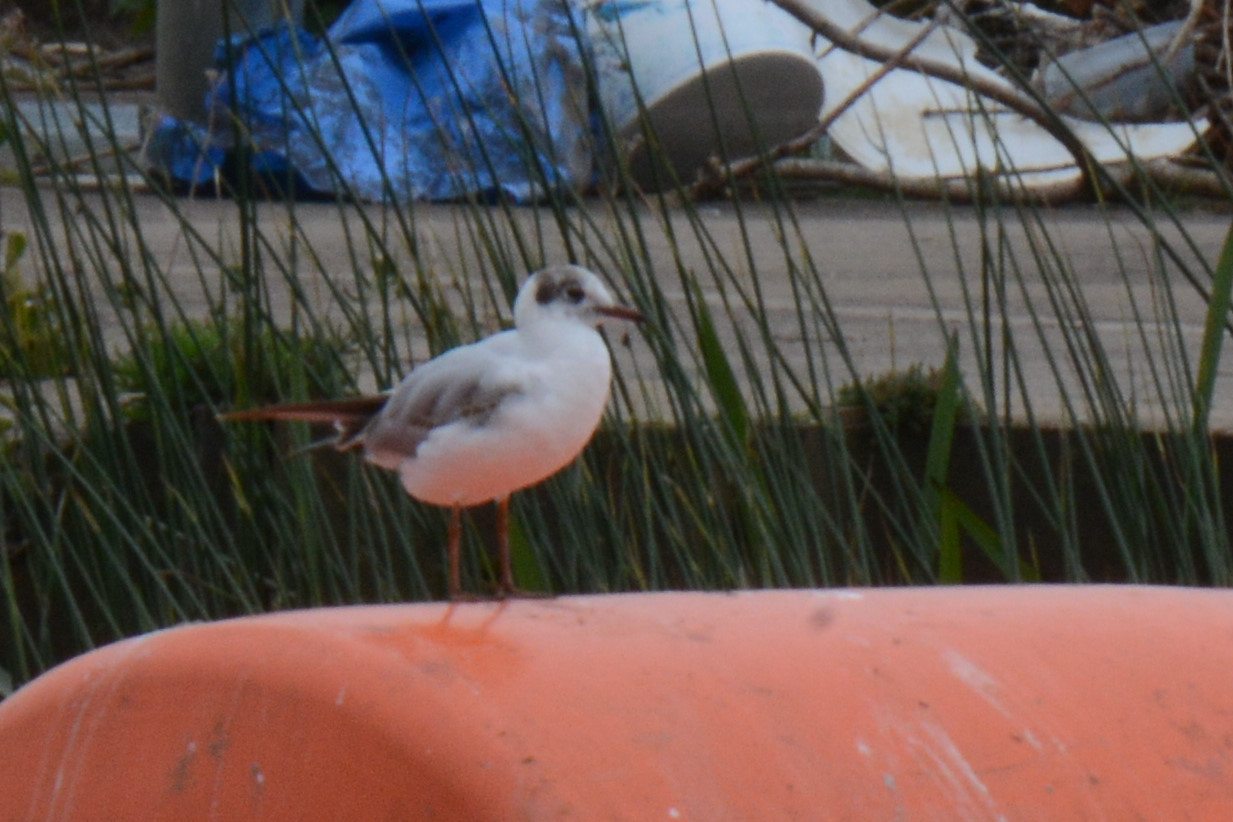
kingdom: Animalia
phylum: Chordata
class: Aves
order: Charadriiformes
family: Laridae
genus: Chroicocephalus
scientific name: Chroicocephalus ridibundus
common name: Black-headed gull
